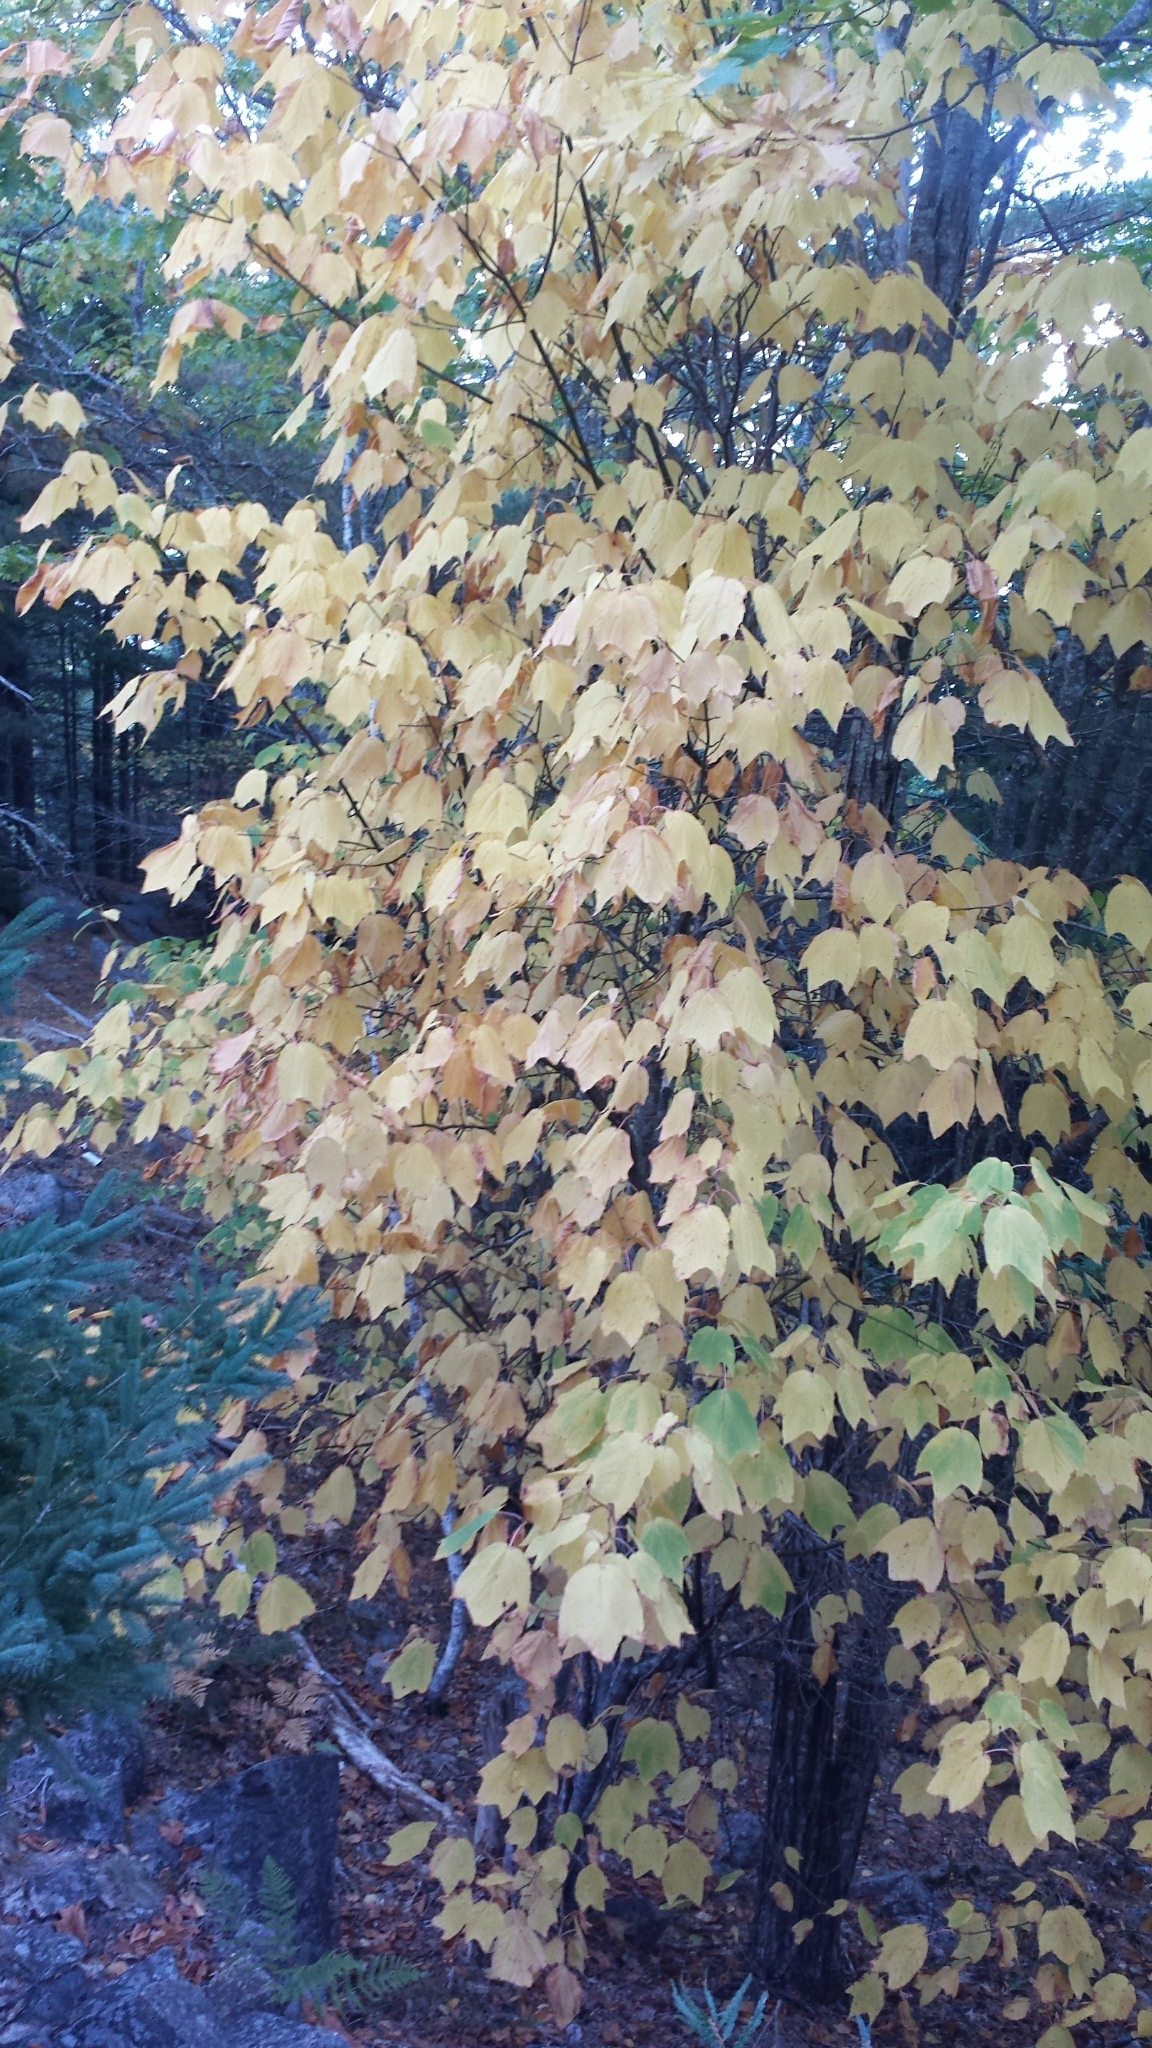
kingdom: Plantae
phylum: Tracheophyta
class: Magnoliopsida
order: Sapindales
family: Sapindaceae
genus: Acer
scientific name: Acer pensylvanicum
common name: Moosewood
